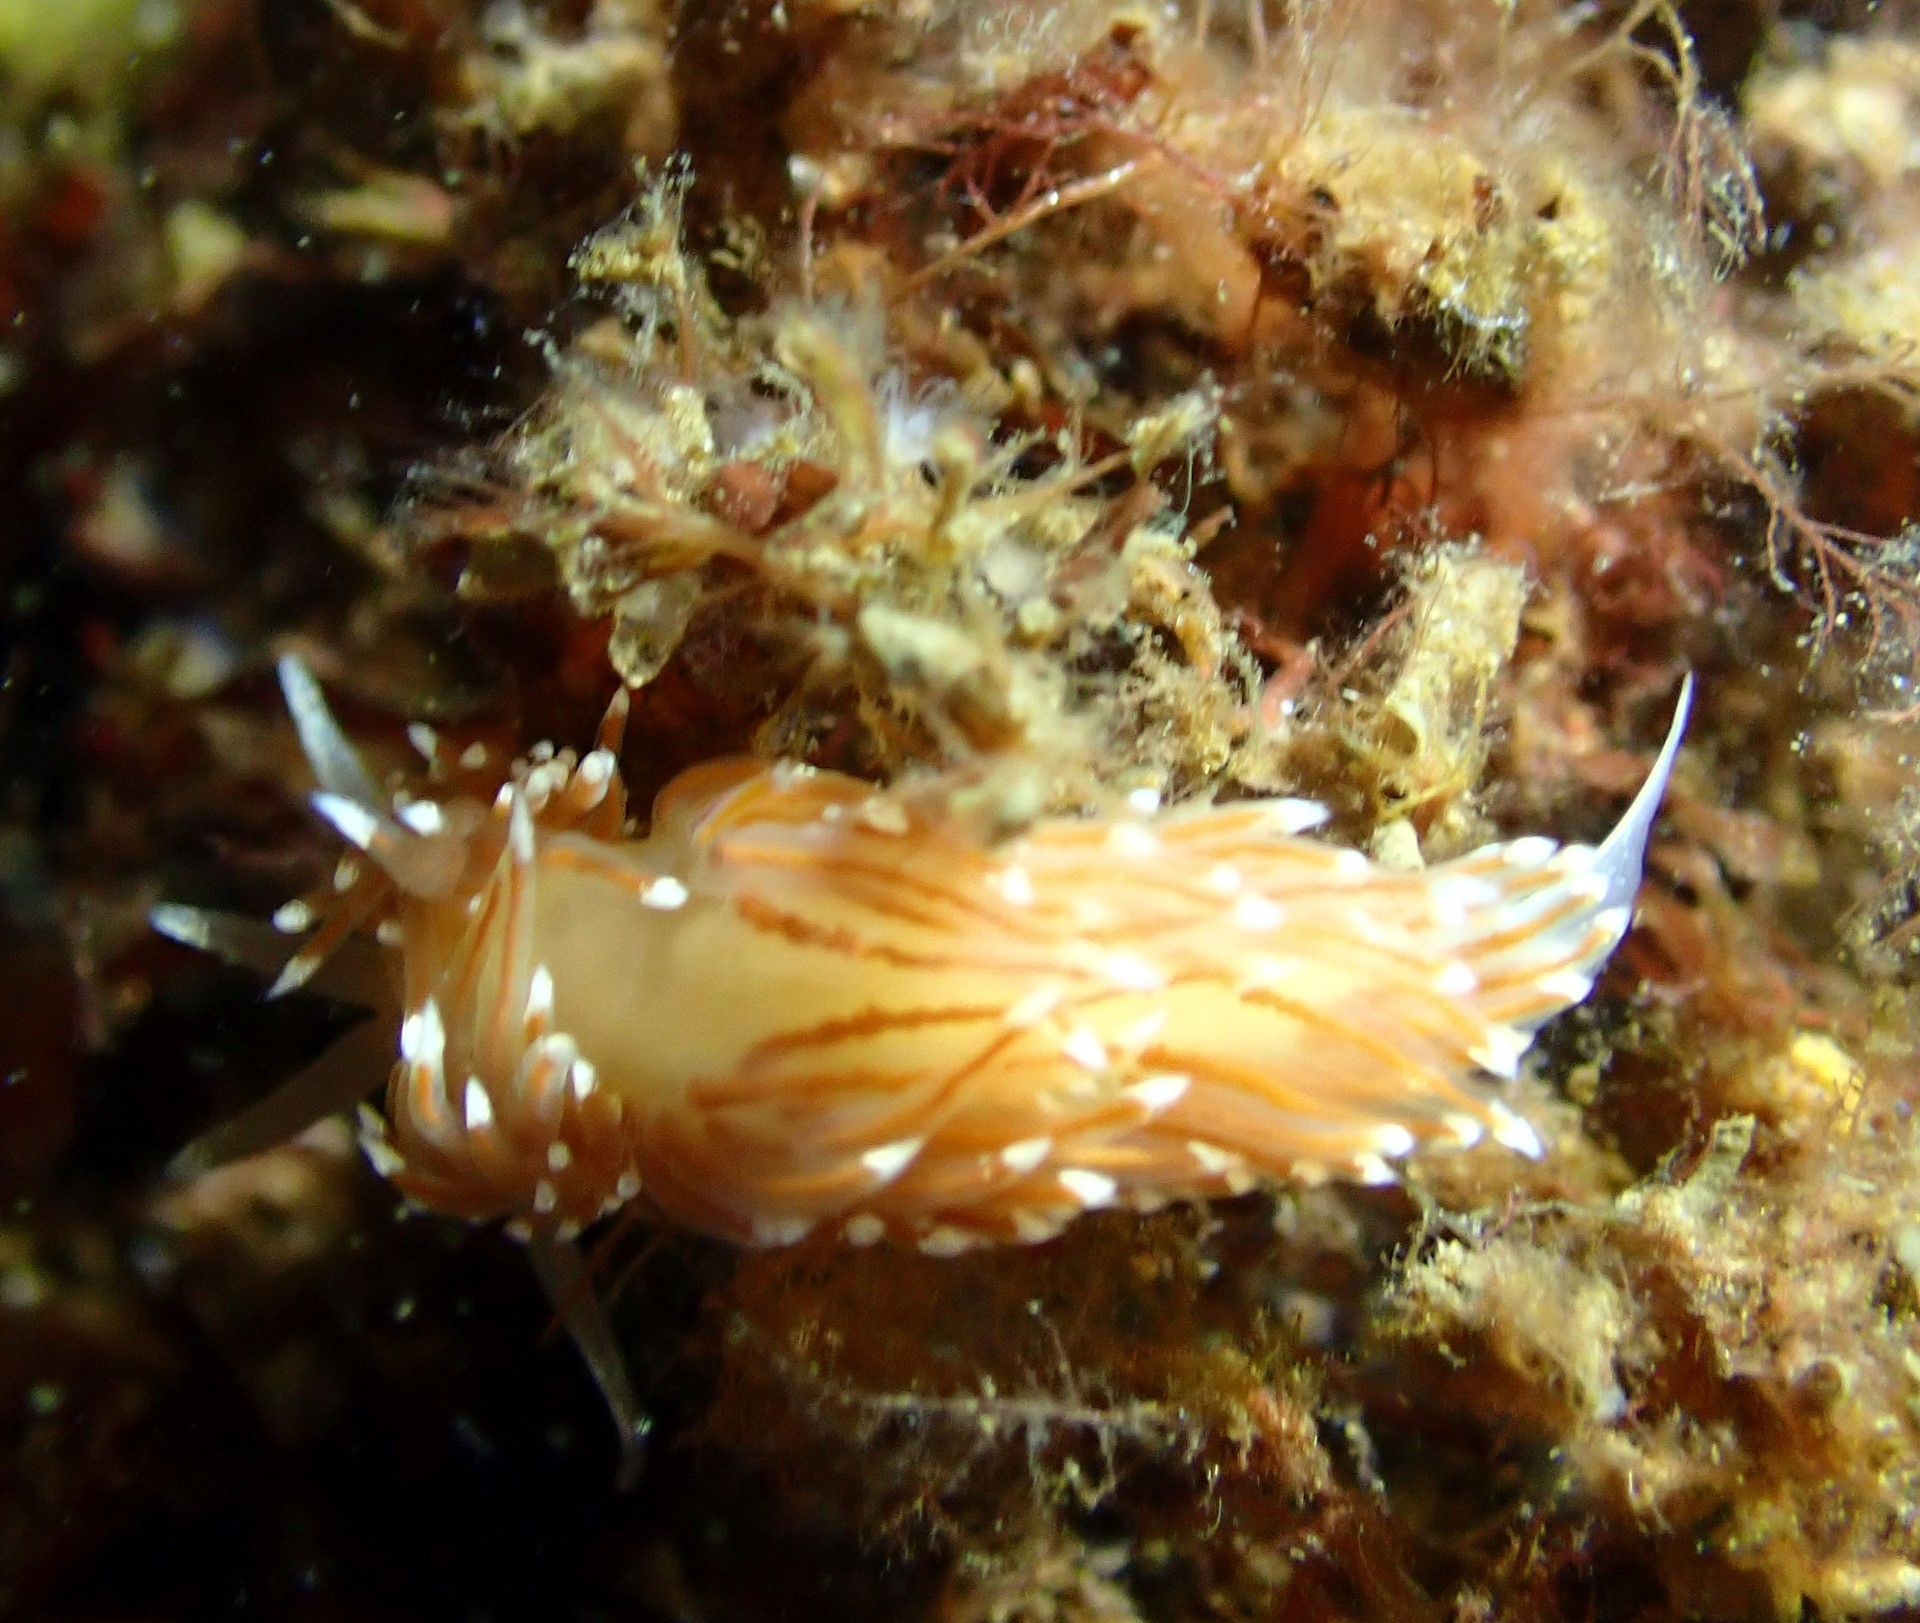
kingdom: Animalia
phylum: Mollusca
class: Gastropoda
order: Nudibranchia
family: Facelinidae
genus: Facelina
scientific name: Facelina bostoniensis
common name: Boston facelina
